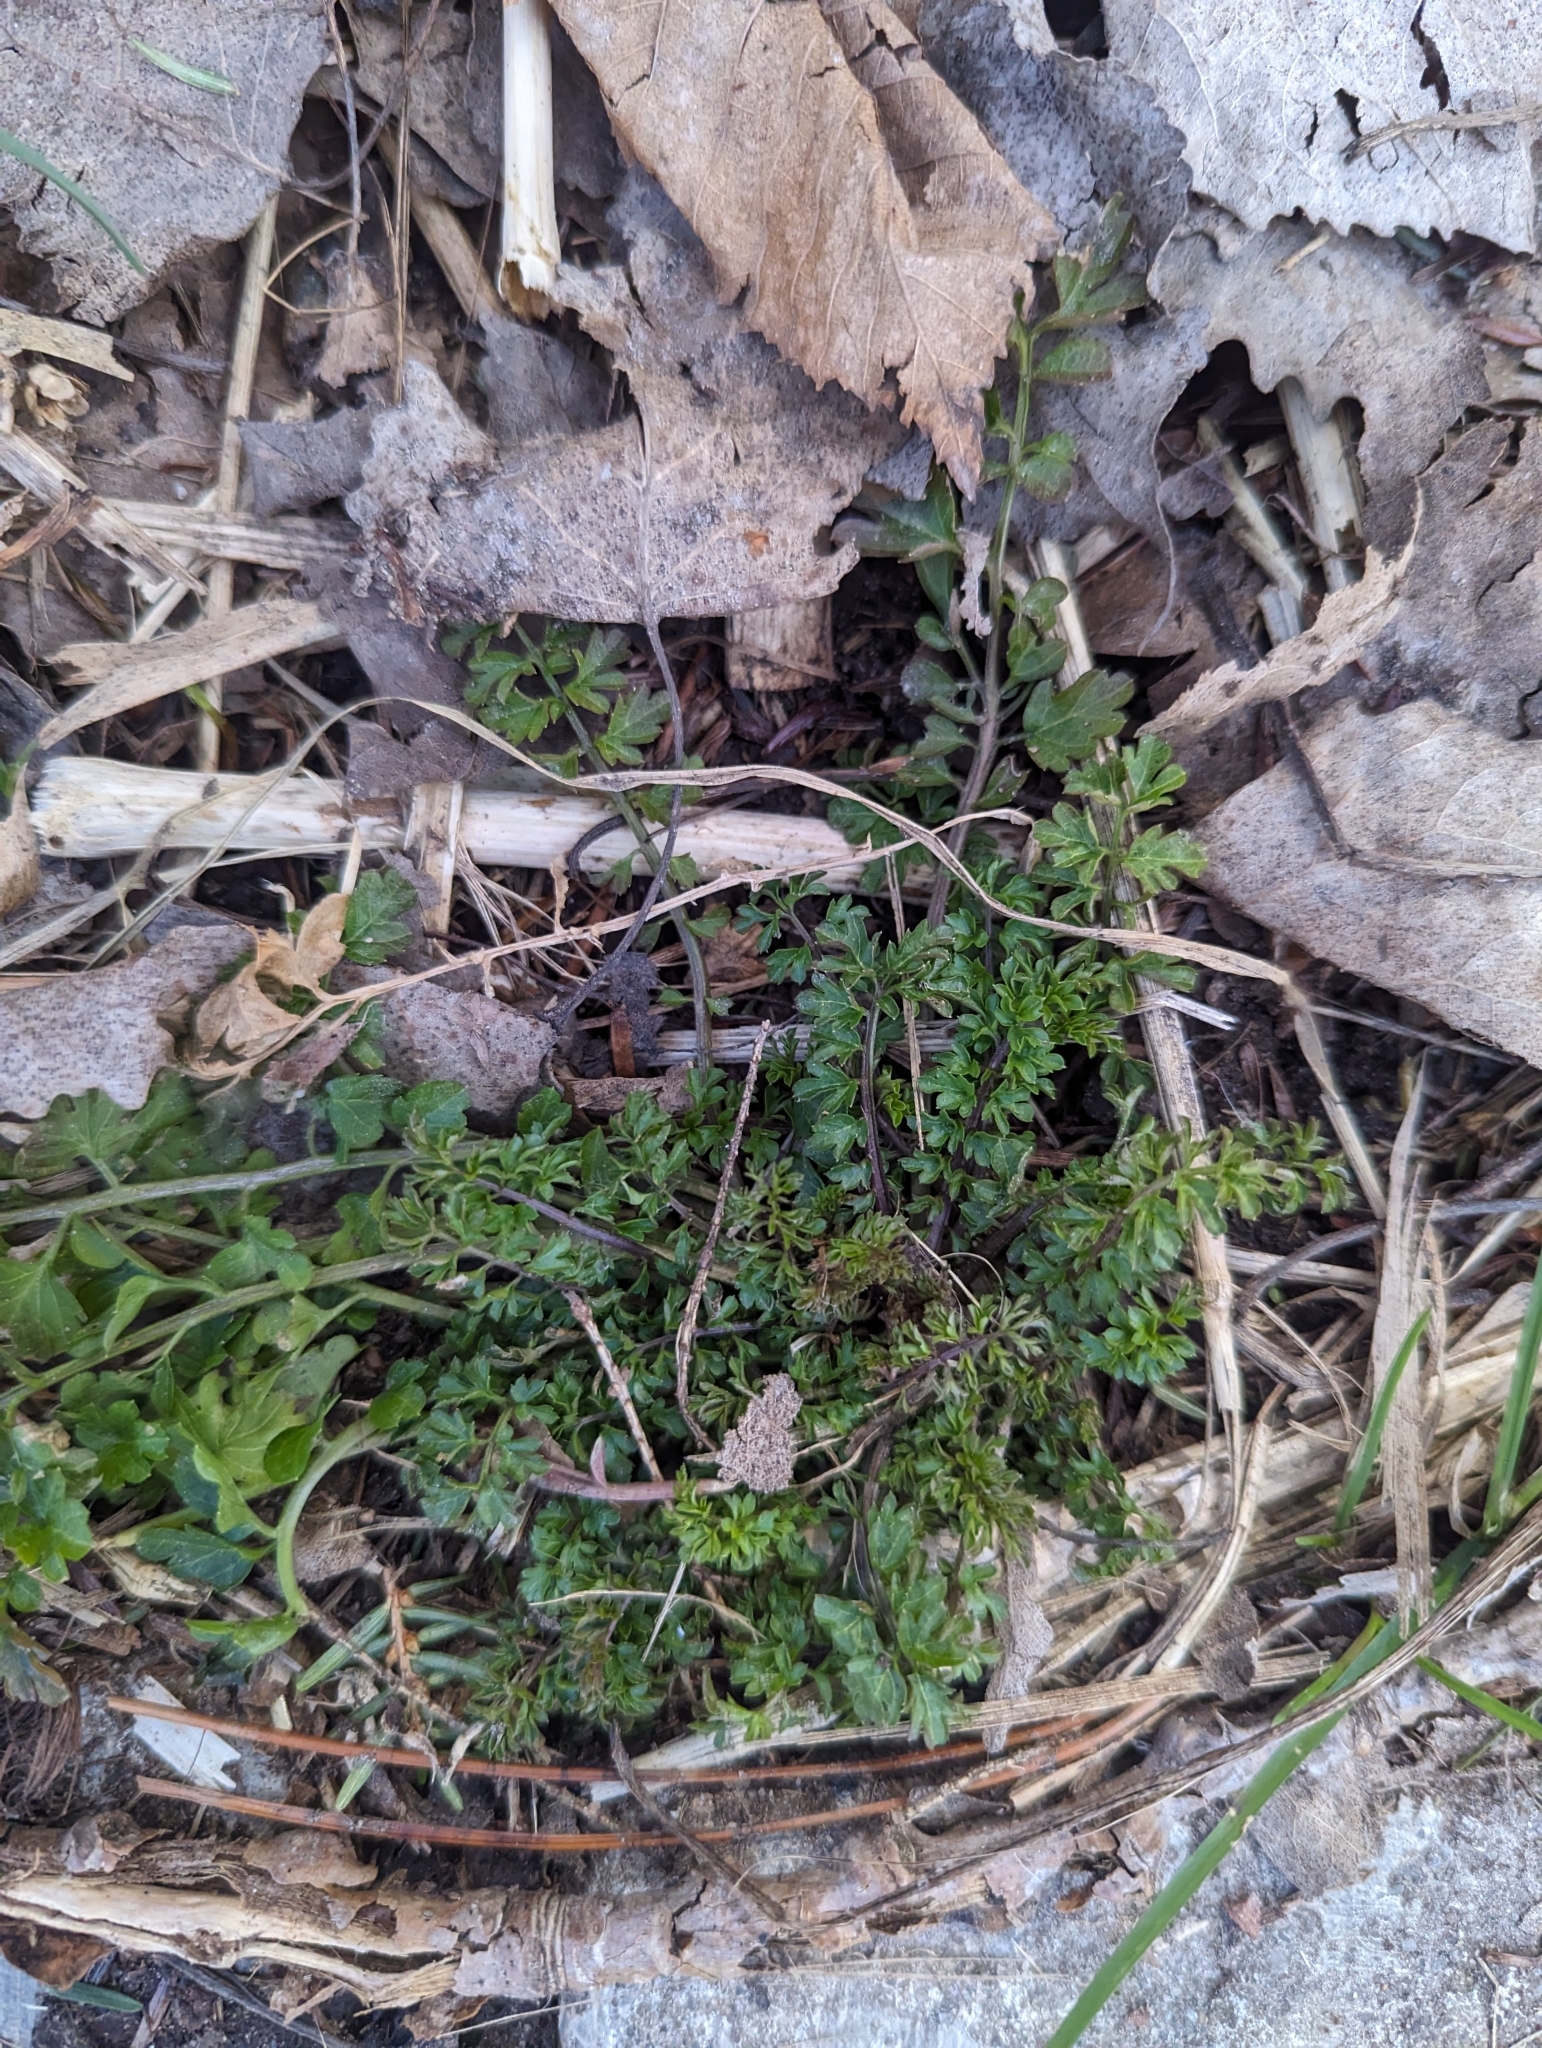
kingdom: Plantae
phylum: Tracheophyta
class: Magnoliopsida
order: Brassicales
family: Brassicaceae
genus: Cardamine
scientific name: Cardamine impatiens
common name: Narrow-leaved bitter-cress
